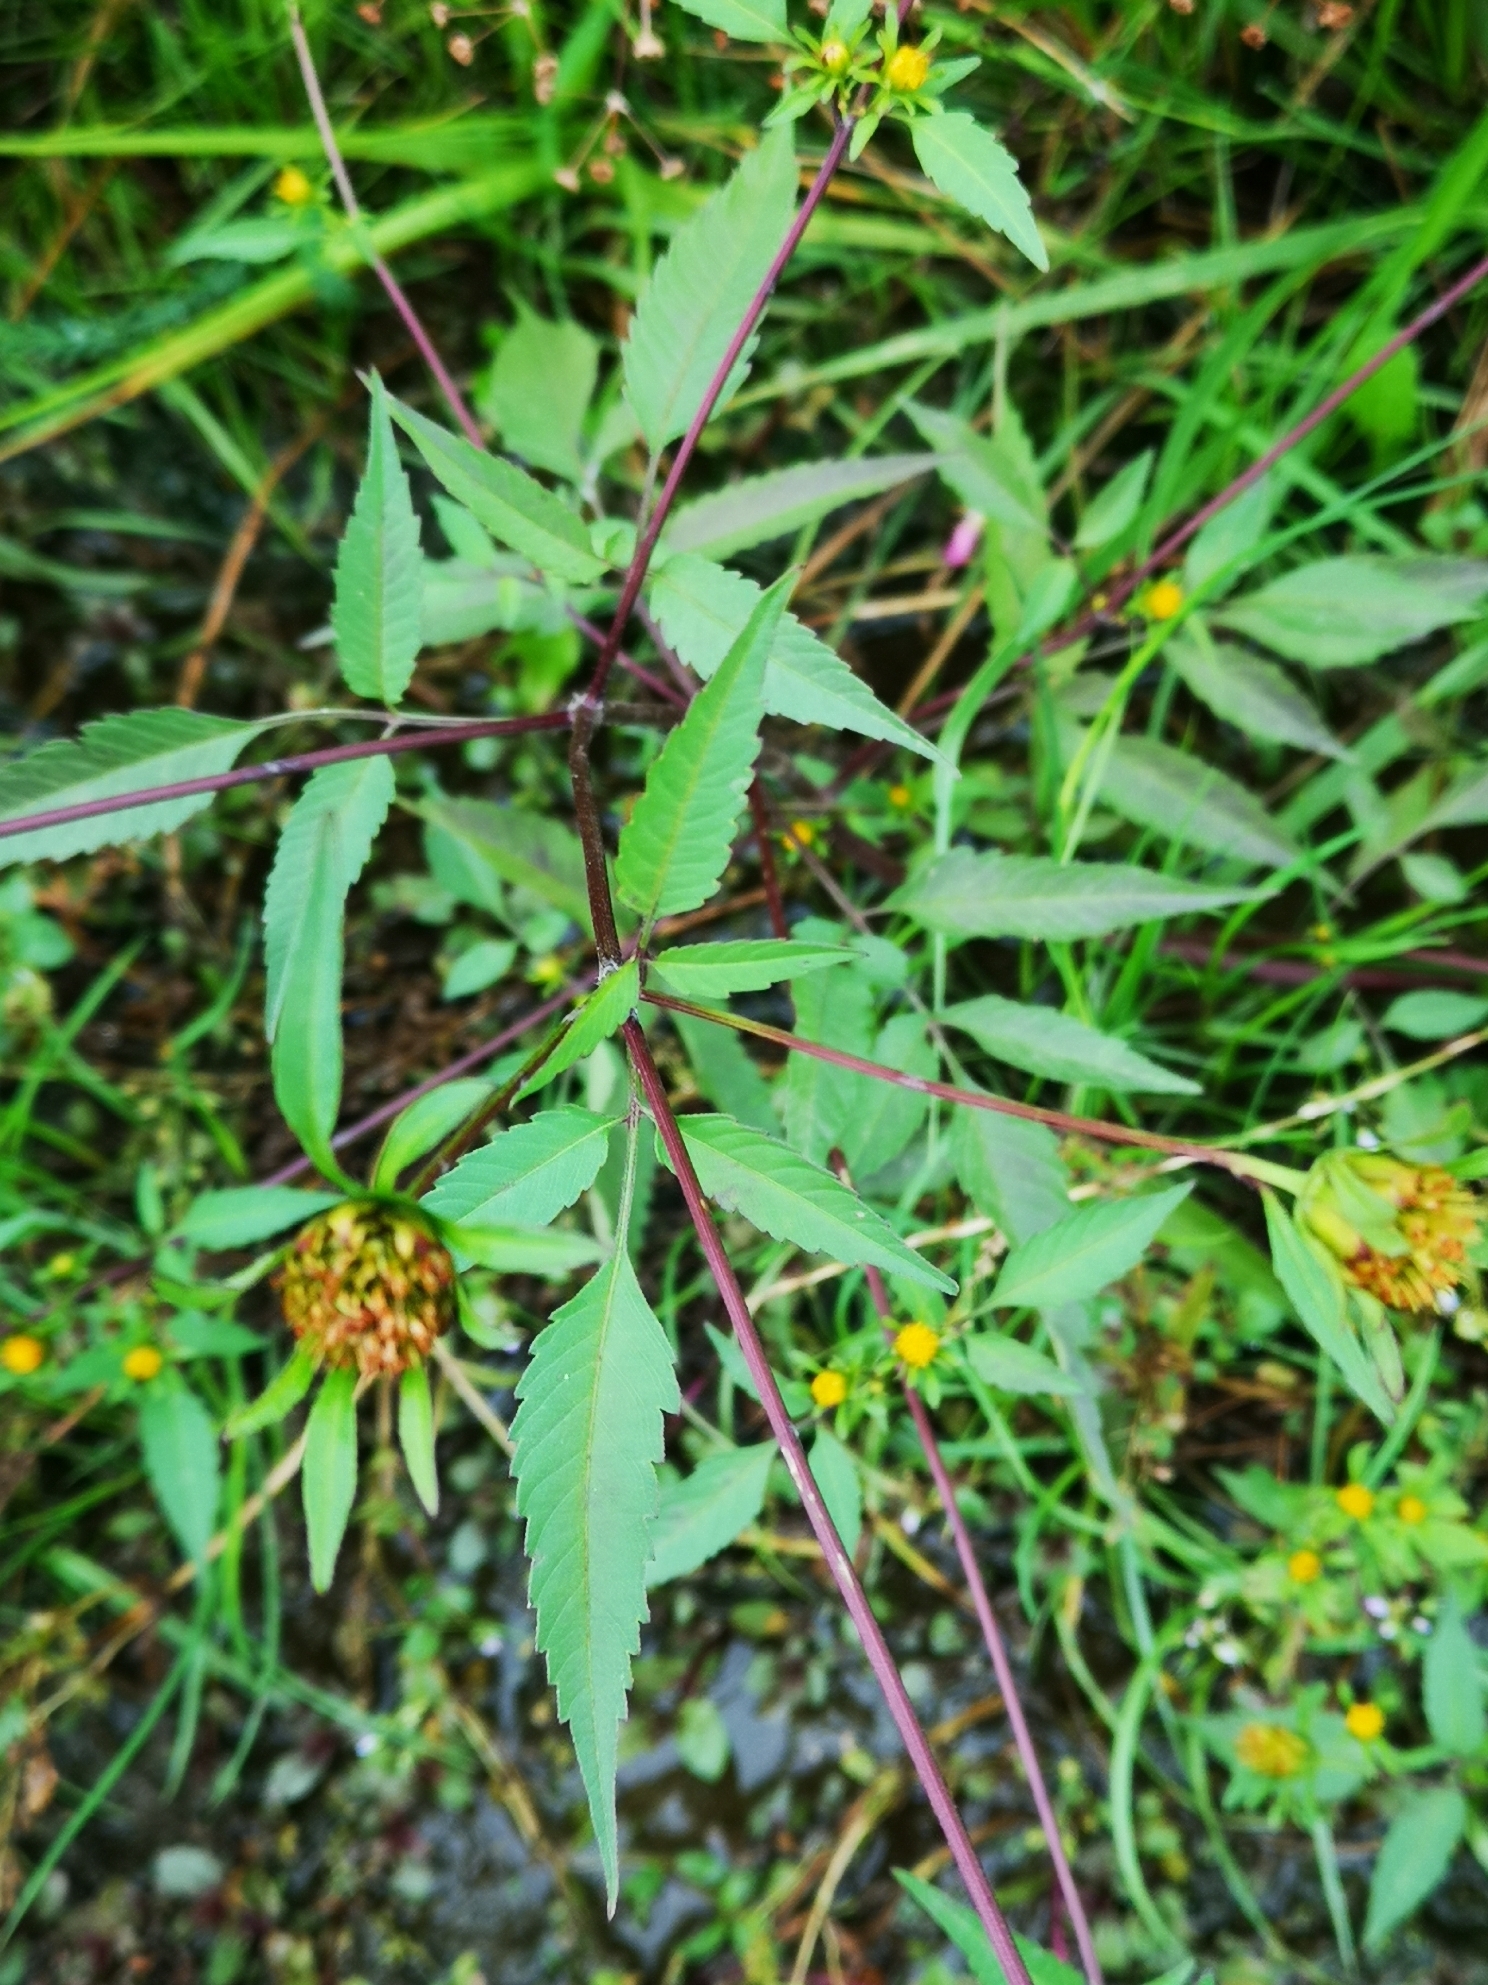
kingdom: Plantae
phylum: Tracheophyta
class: Magnoliopsida
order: Asterales
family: Asteraceae
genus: Bidens
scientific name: Bidens frondosa
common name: Beggarticks
